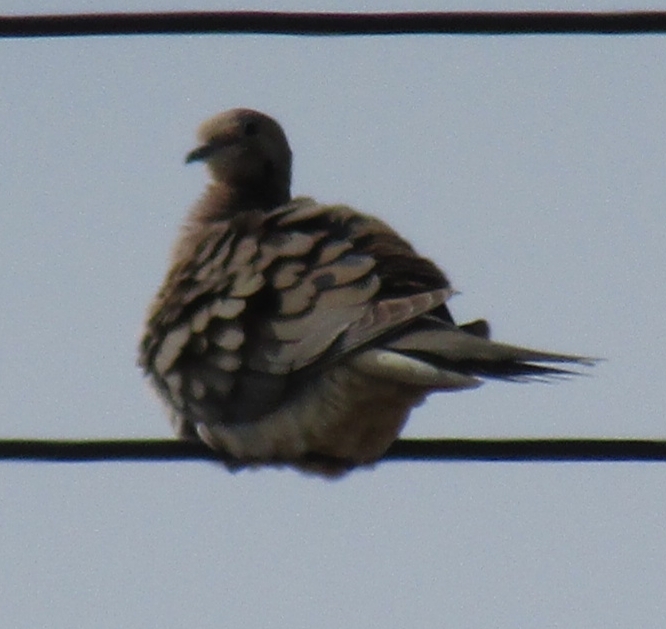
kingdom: Animalia
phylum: Chordata
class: Aves
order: Columbiformes
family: Columbidae
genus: Zenaida
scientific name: Zenaida macroura
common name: Mourning dove
